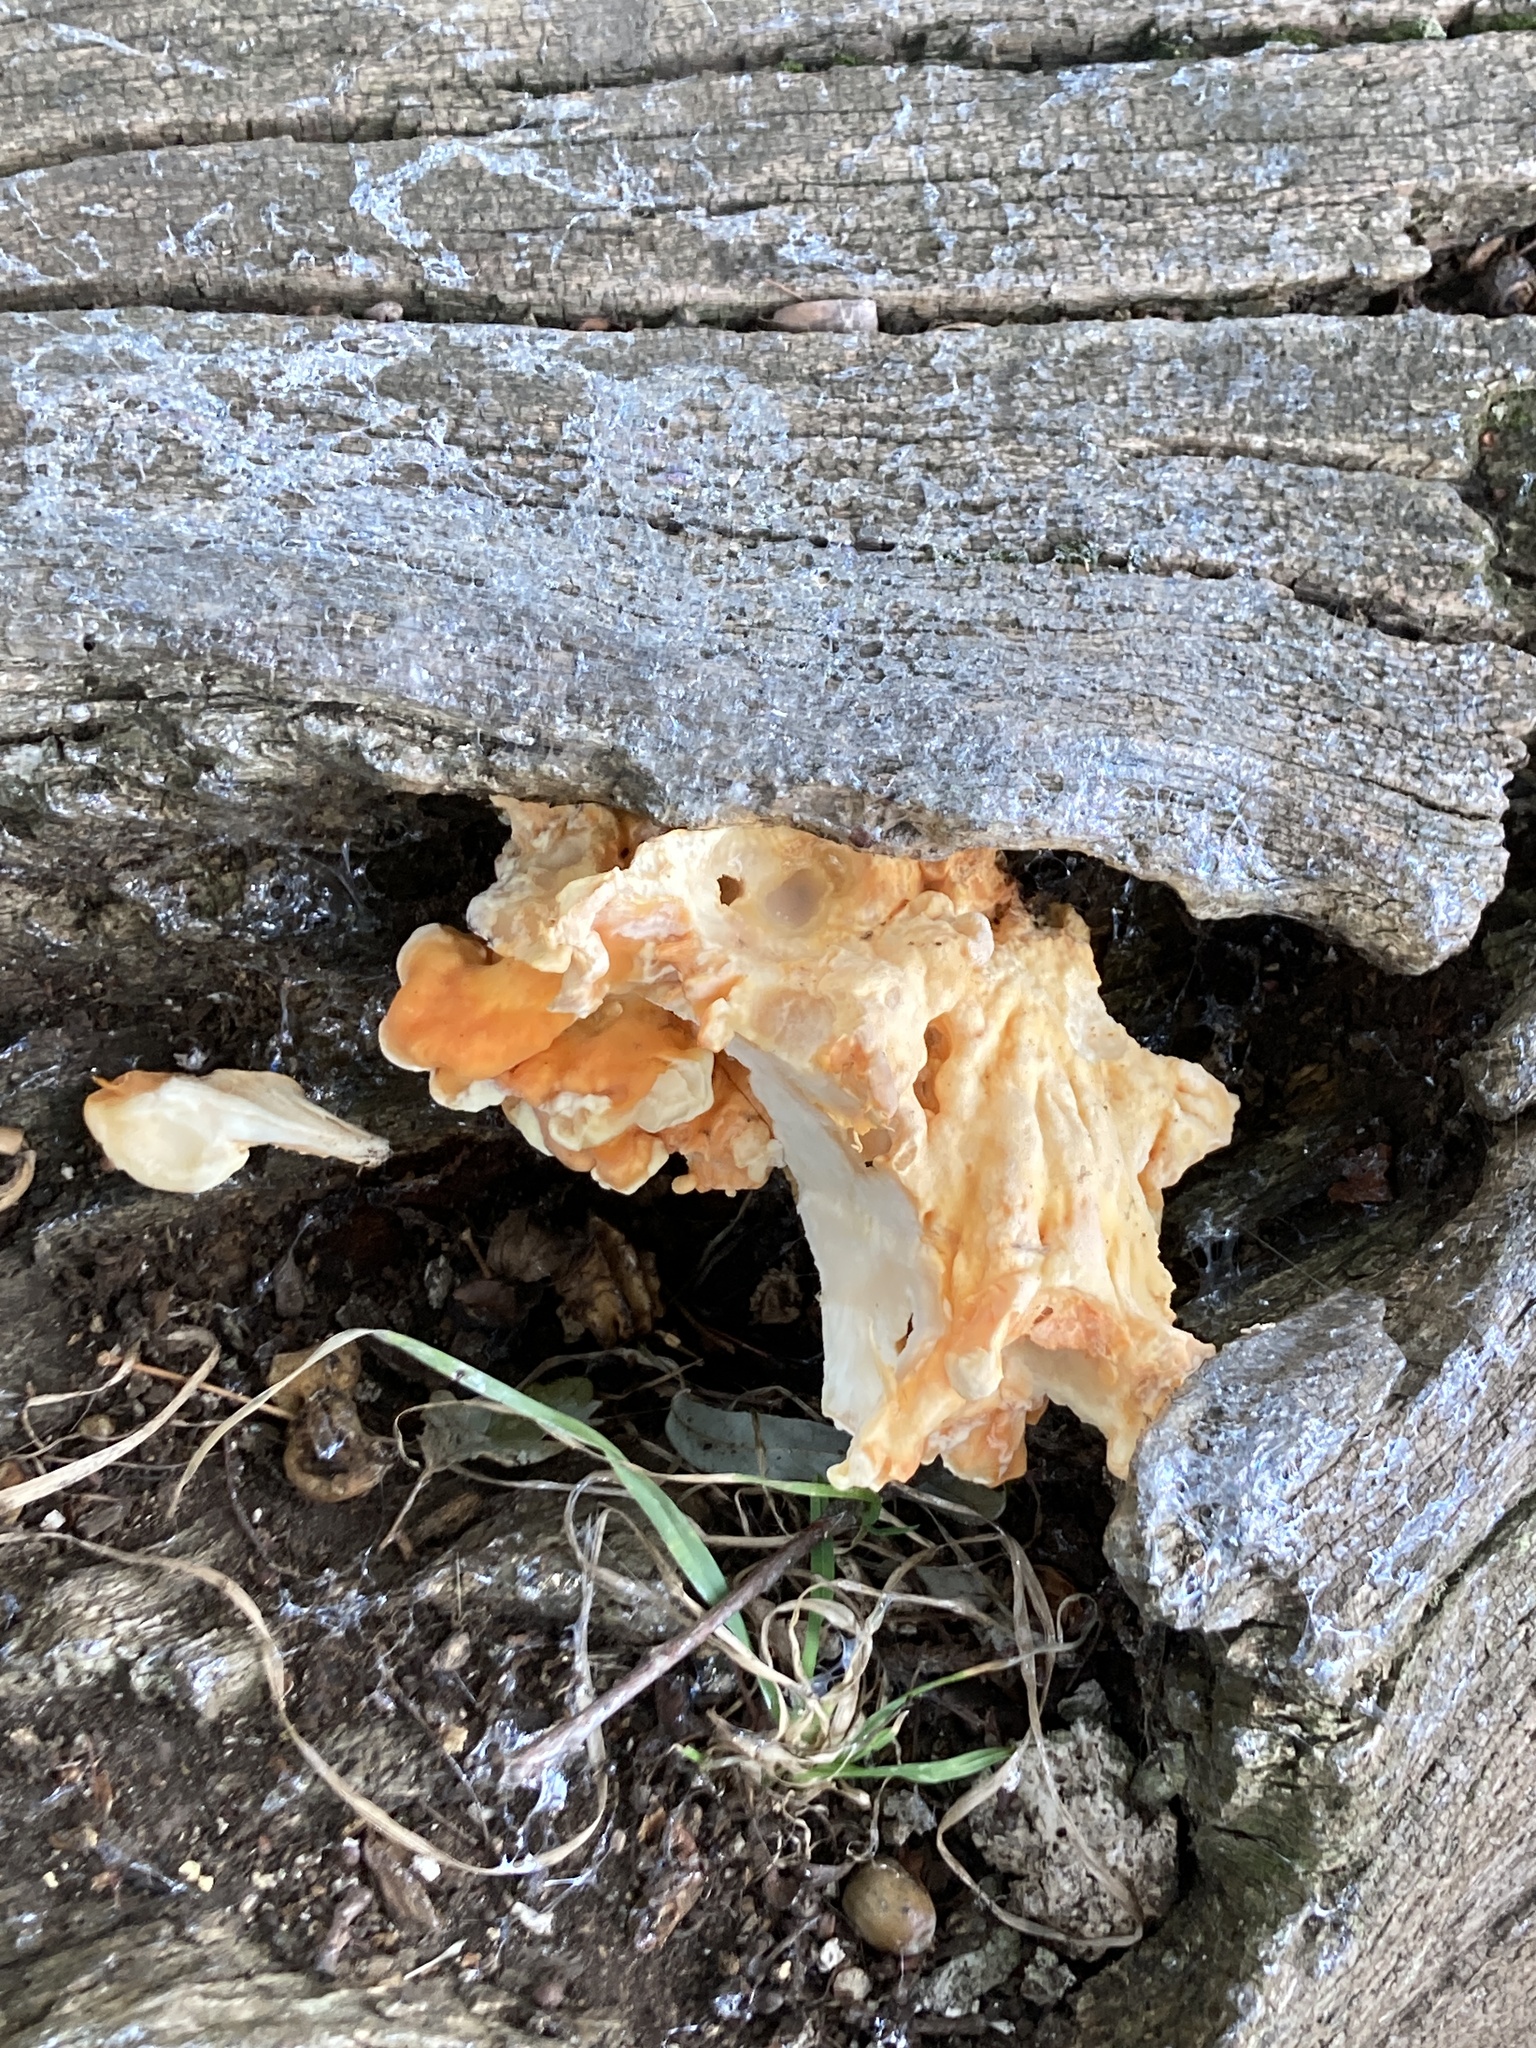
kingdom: Fungi
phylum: Basidiomycota
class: Agaricomycetes
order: Polyporales
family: Laetiporaceae
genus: Laetiporus
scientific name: Laetiporus sulphureus
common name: Chicken of the woods
